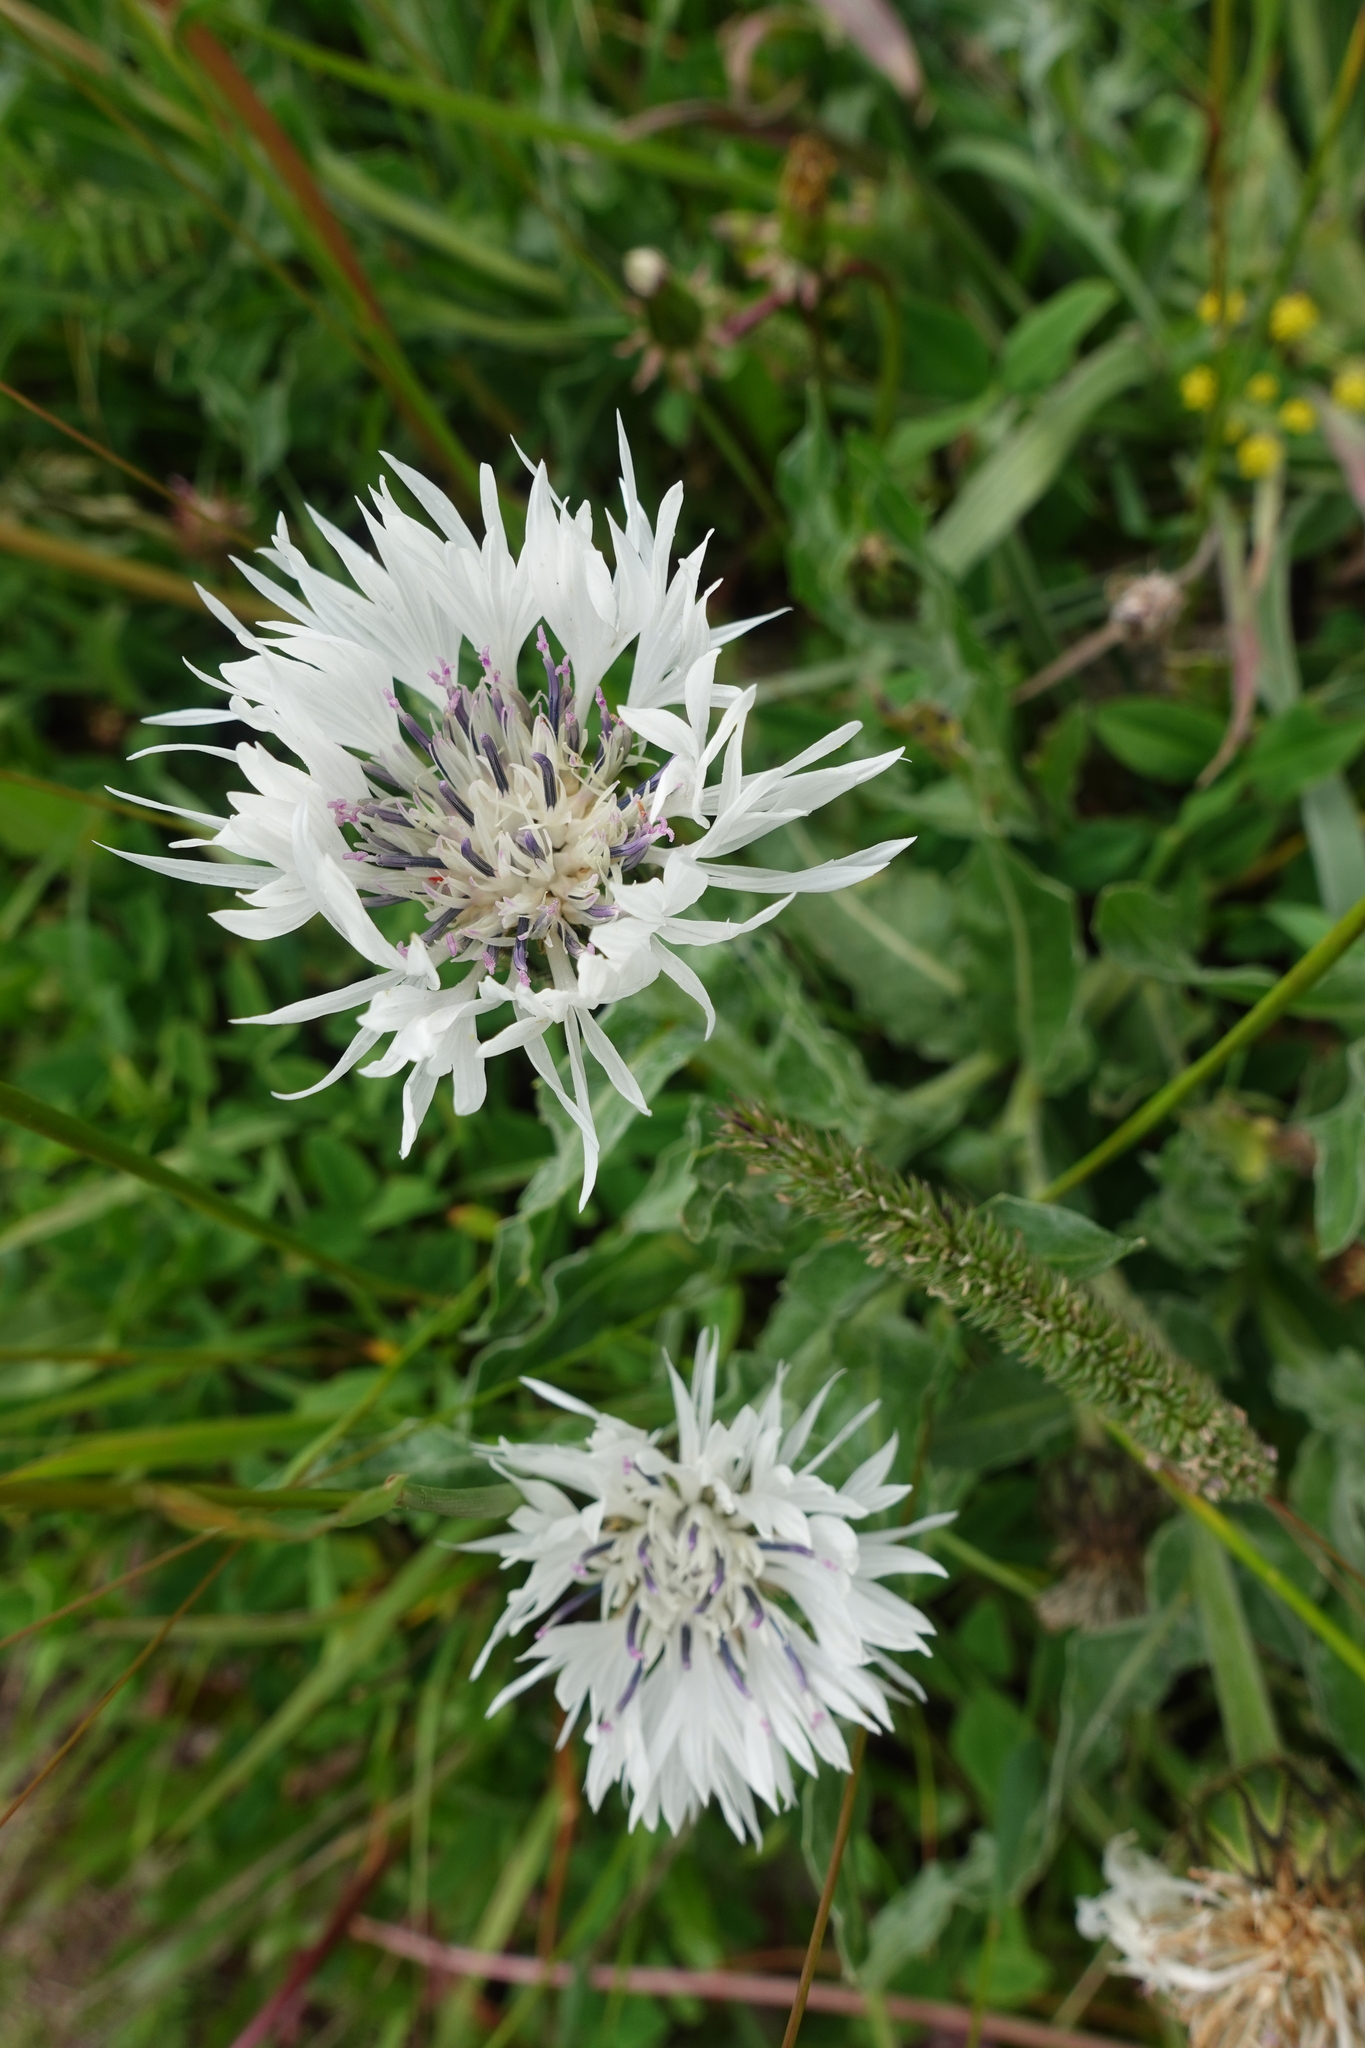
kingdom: Plantae
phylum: Tracheophyta
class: Magnoliopsida
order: Asterales
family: Asteraceae
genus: Centaurea
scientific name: Centaurea cheiranthifolia
